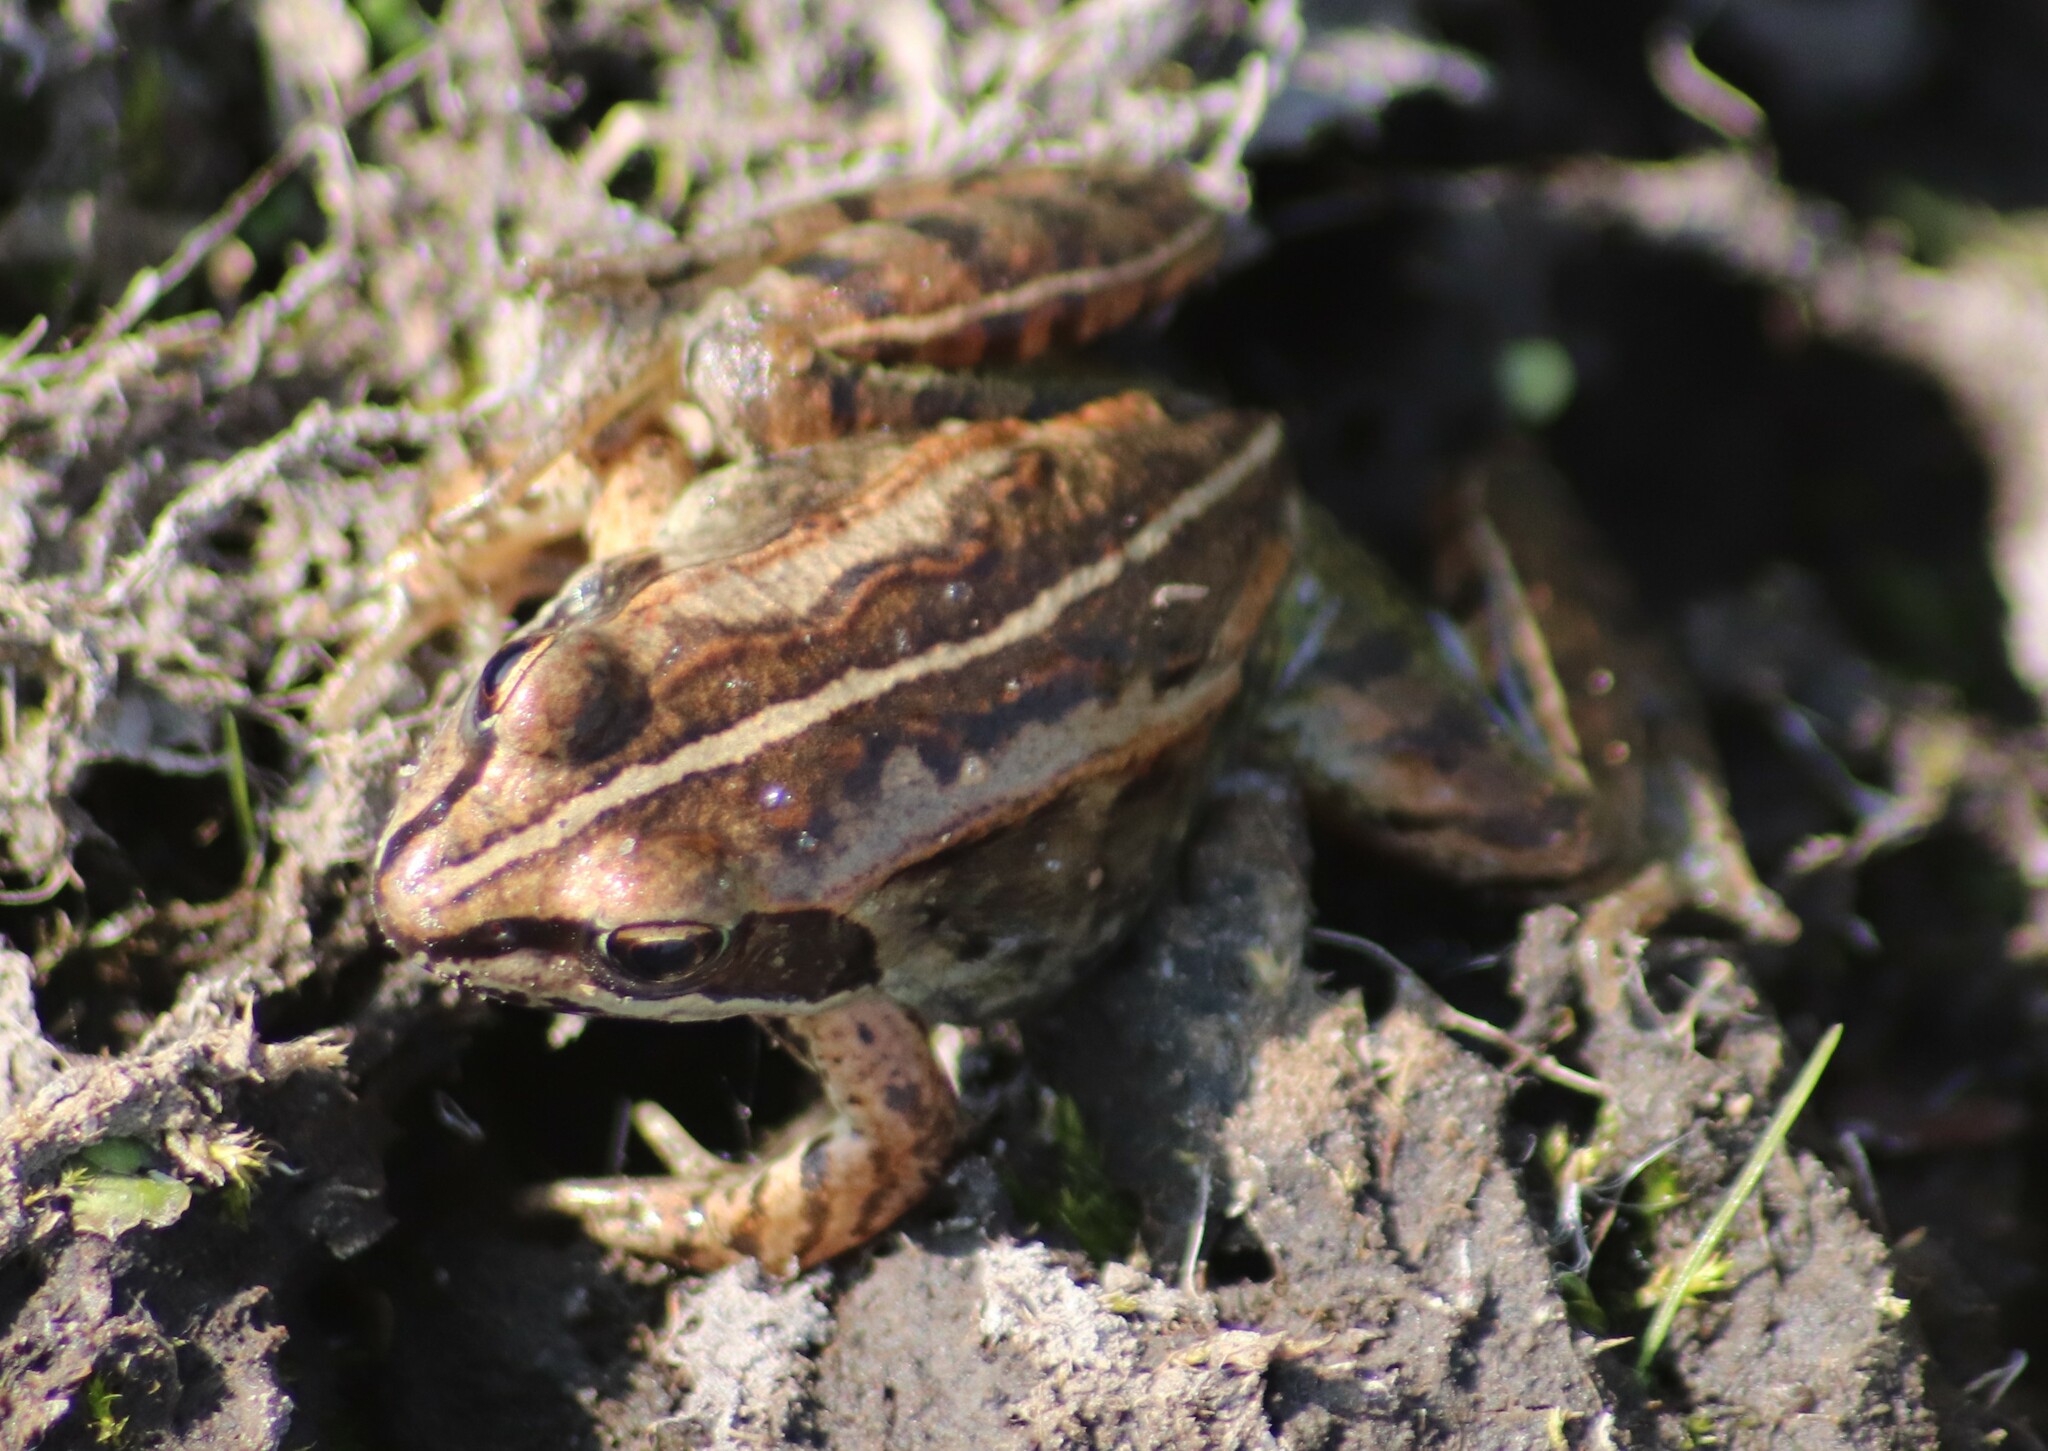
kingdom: Animalia
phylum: Chordata
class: Amphibia
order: Anura
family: Ranidae
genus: Lithobates
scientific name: Lithobates sylvaticus
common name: Wood frog
